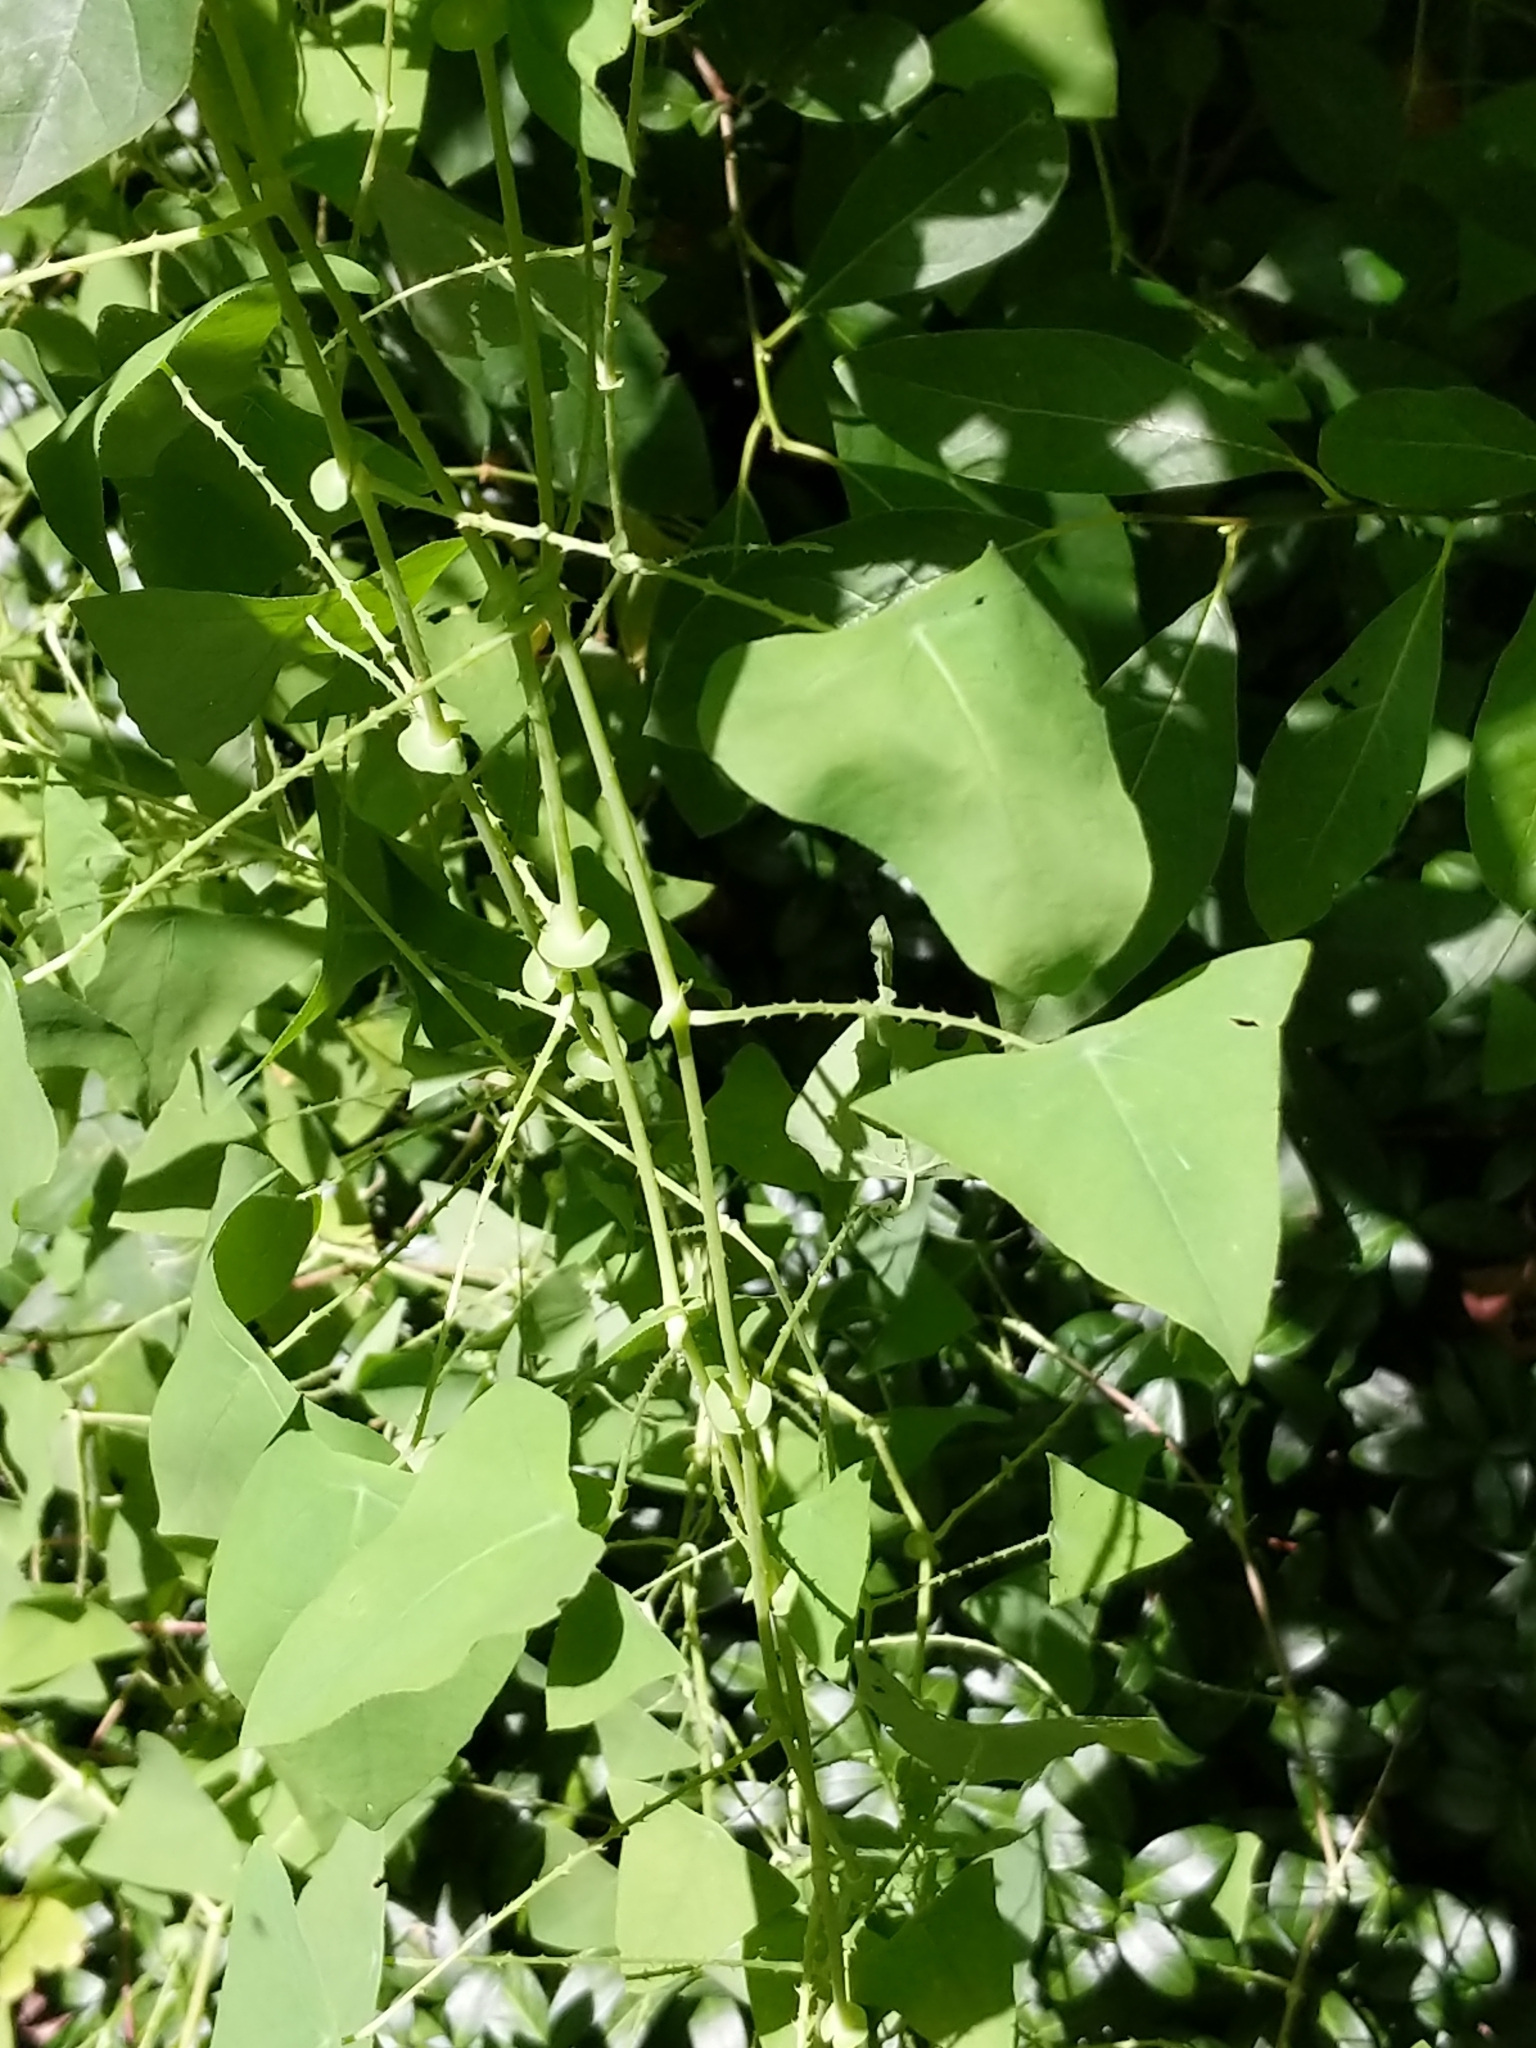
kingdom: Plantae
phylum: Tracheophyta
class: Magnoliopsida
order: Caryophyllales
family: Polygonaceae
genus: Persicaria
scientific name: Persicaria perfoliata
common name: Asiatic tearthumb
